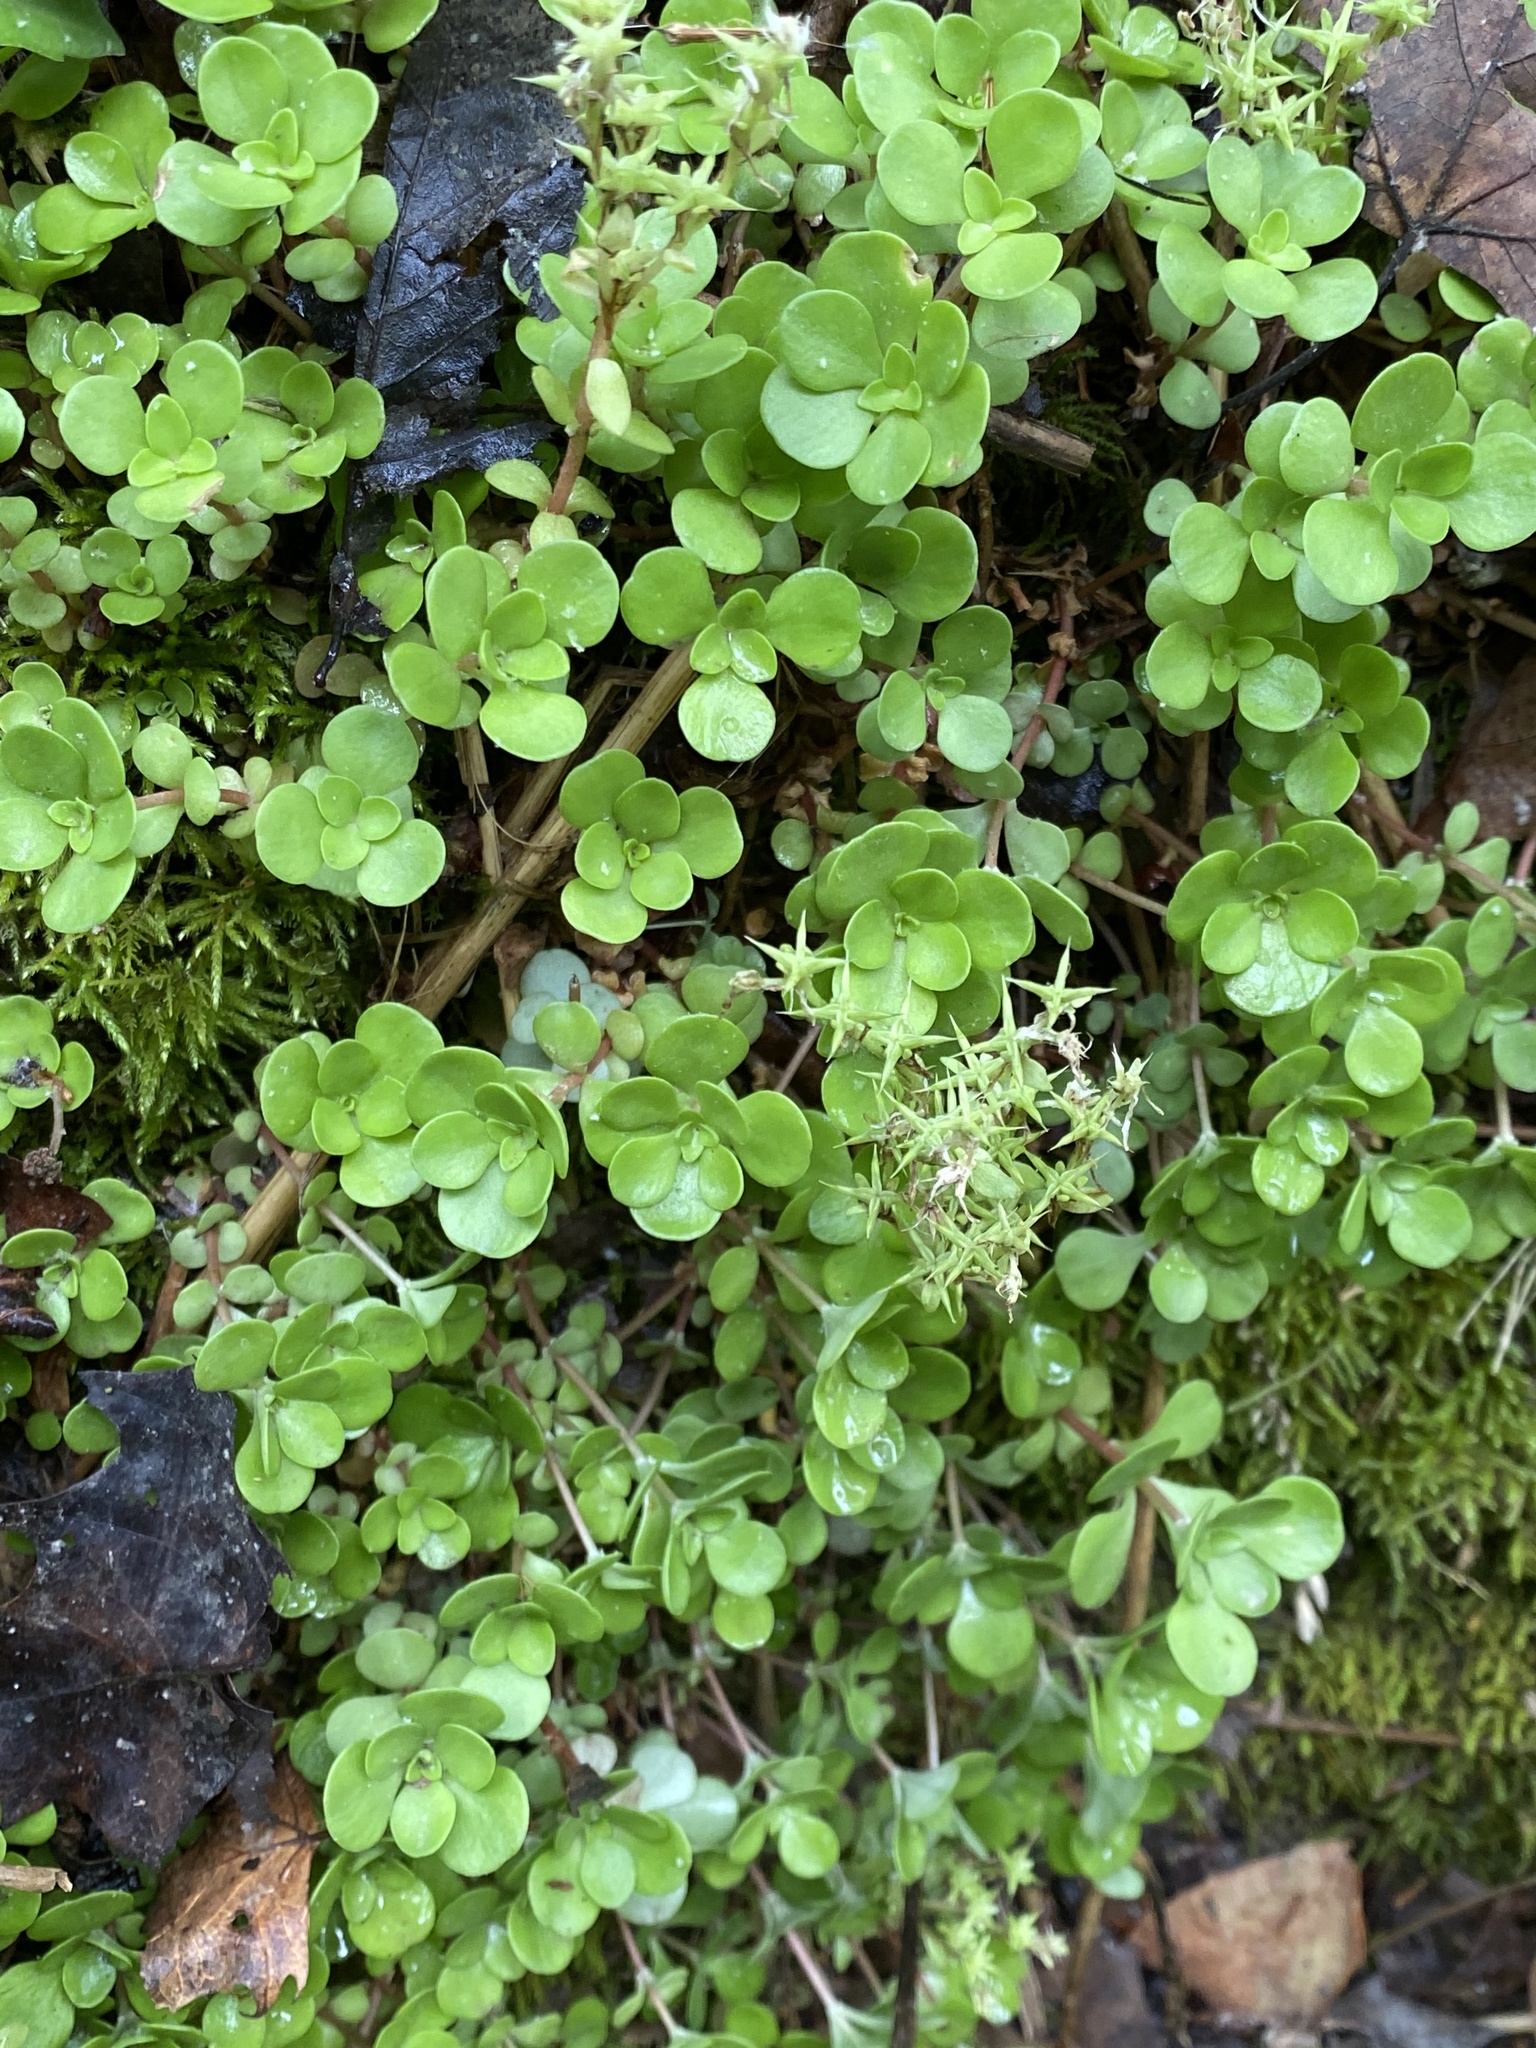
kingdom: Plantae
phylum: Tracheophyta
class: Magnoliopsida
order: Saxifragales
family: Crassulaceae
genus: Sedum
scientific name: Sedum ternatum
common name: Wild stonecrop
